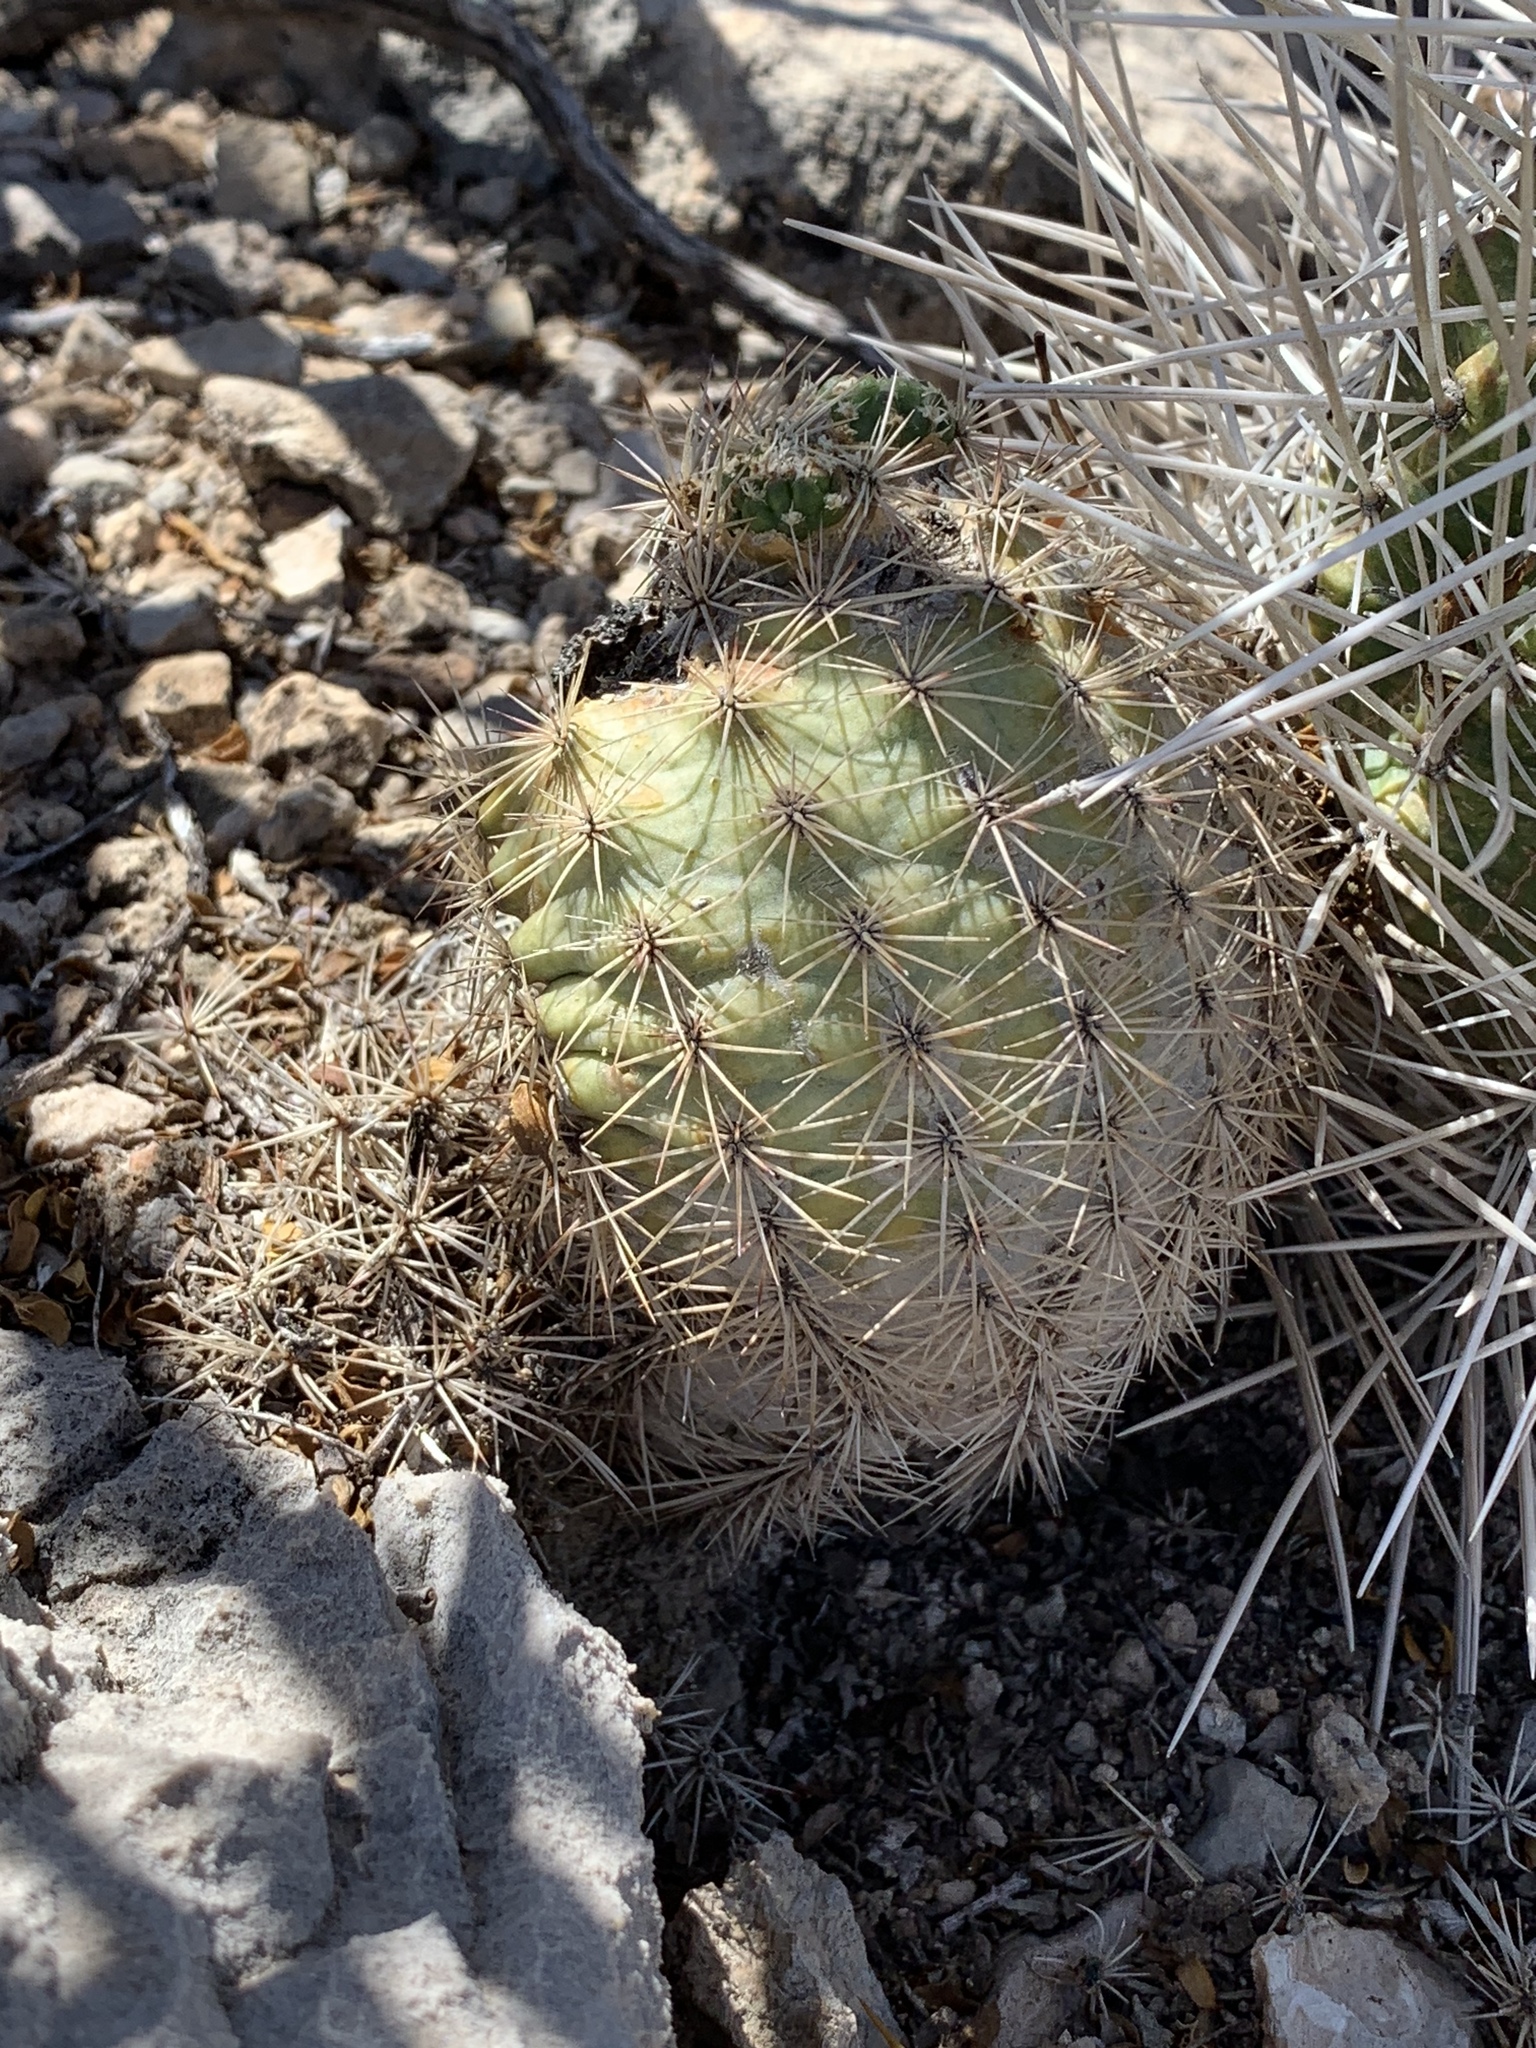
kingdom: Plantae
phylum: Tracheophyta
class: Magnoliopsida
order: Caryophyllales
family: Cactaceae
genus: Echinocereus
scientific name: Echinocereus dasyacanthus
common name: Spiny hedgehog cactus
